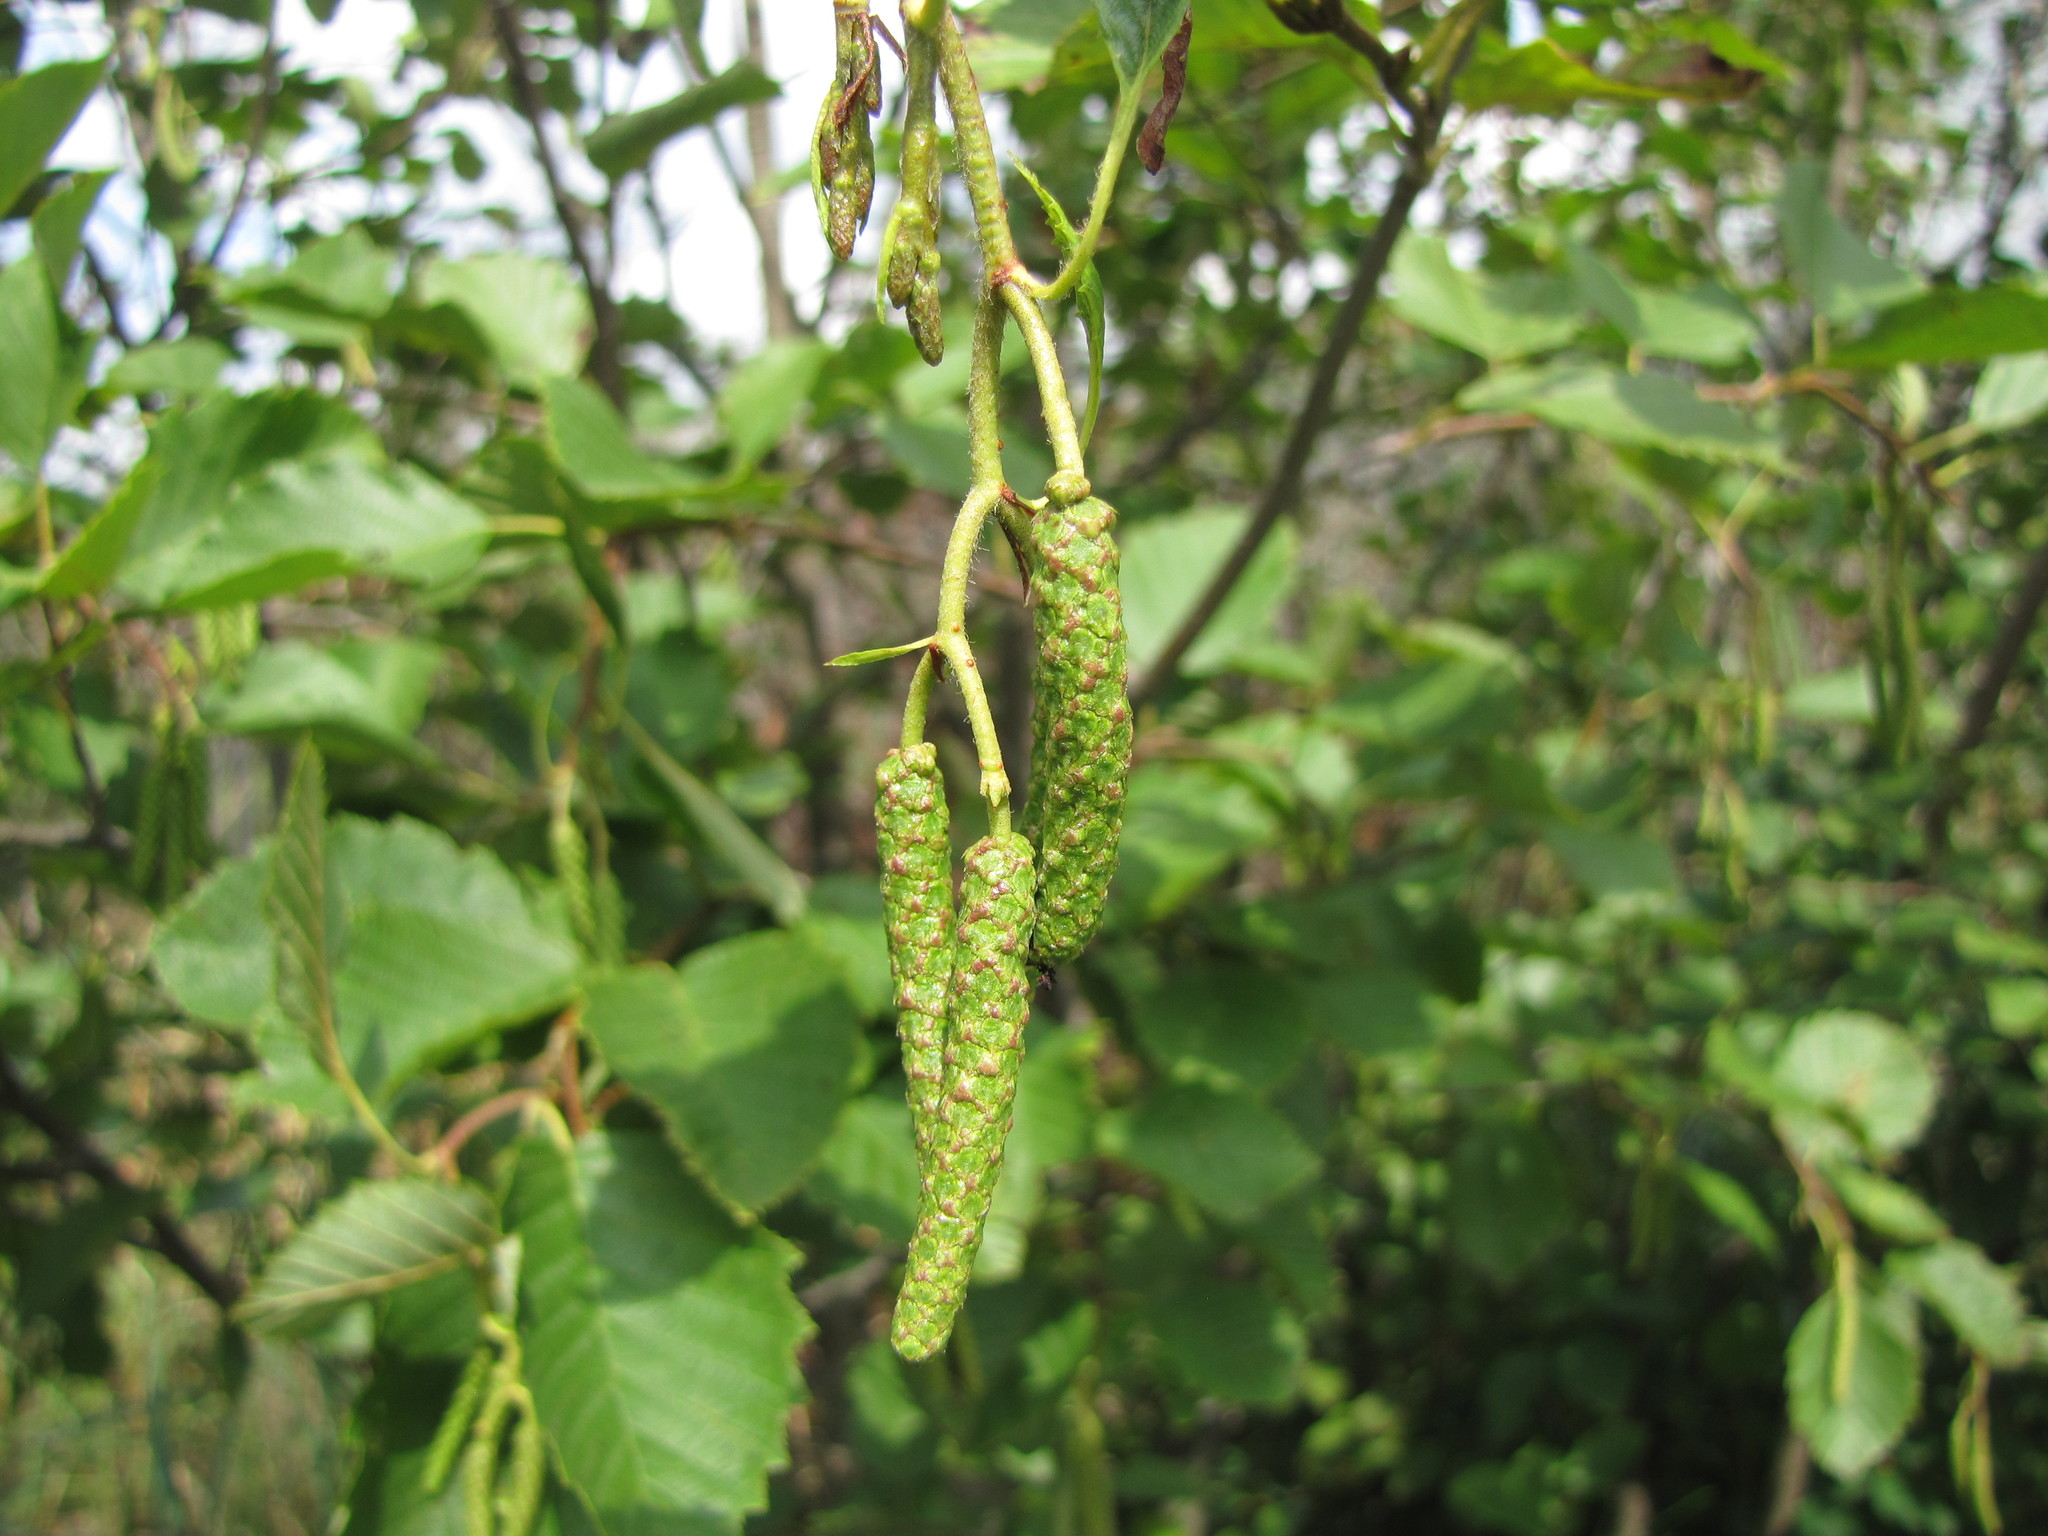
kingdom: Plantae
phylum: Tracheophyta
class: Magnoliopsida
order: Fagales
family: Betulaceae
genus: Alnus
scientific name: Alnus incana
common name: Grey alder
